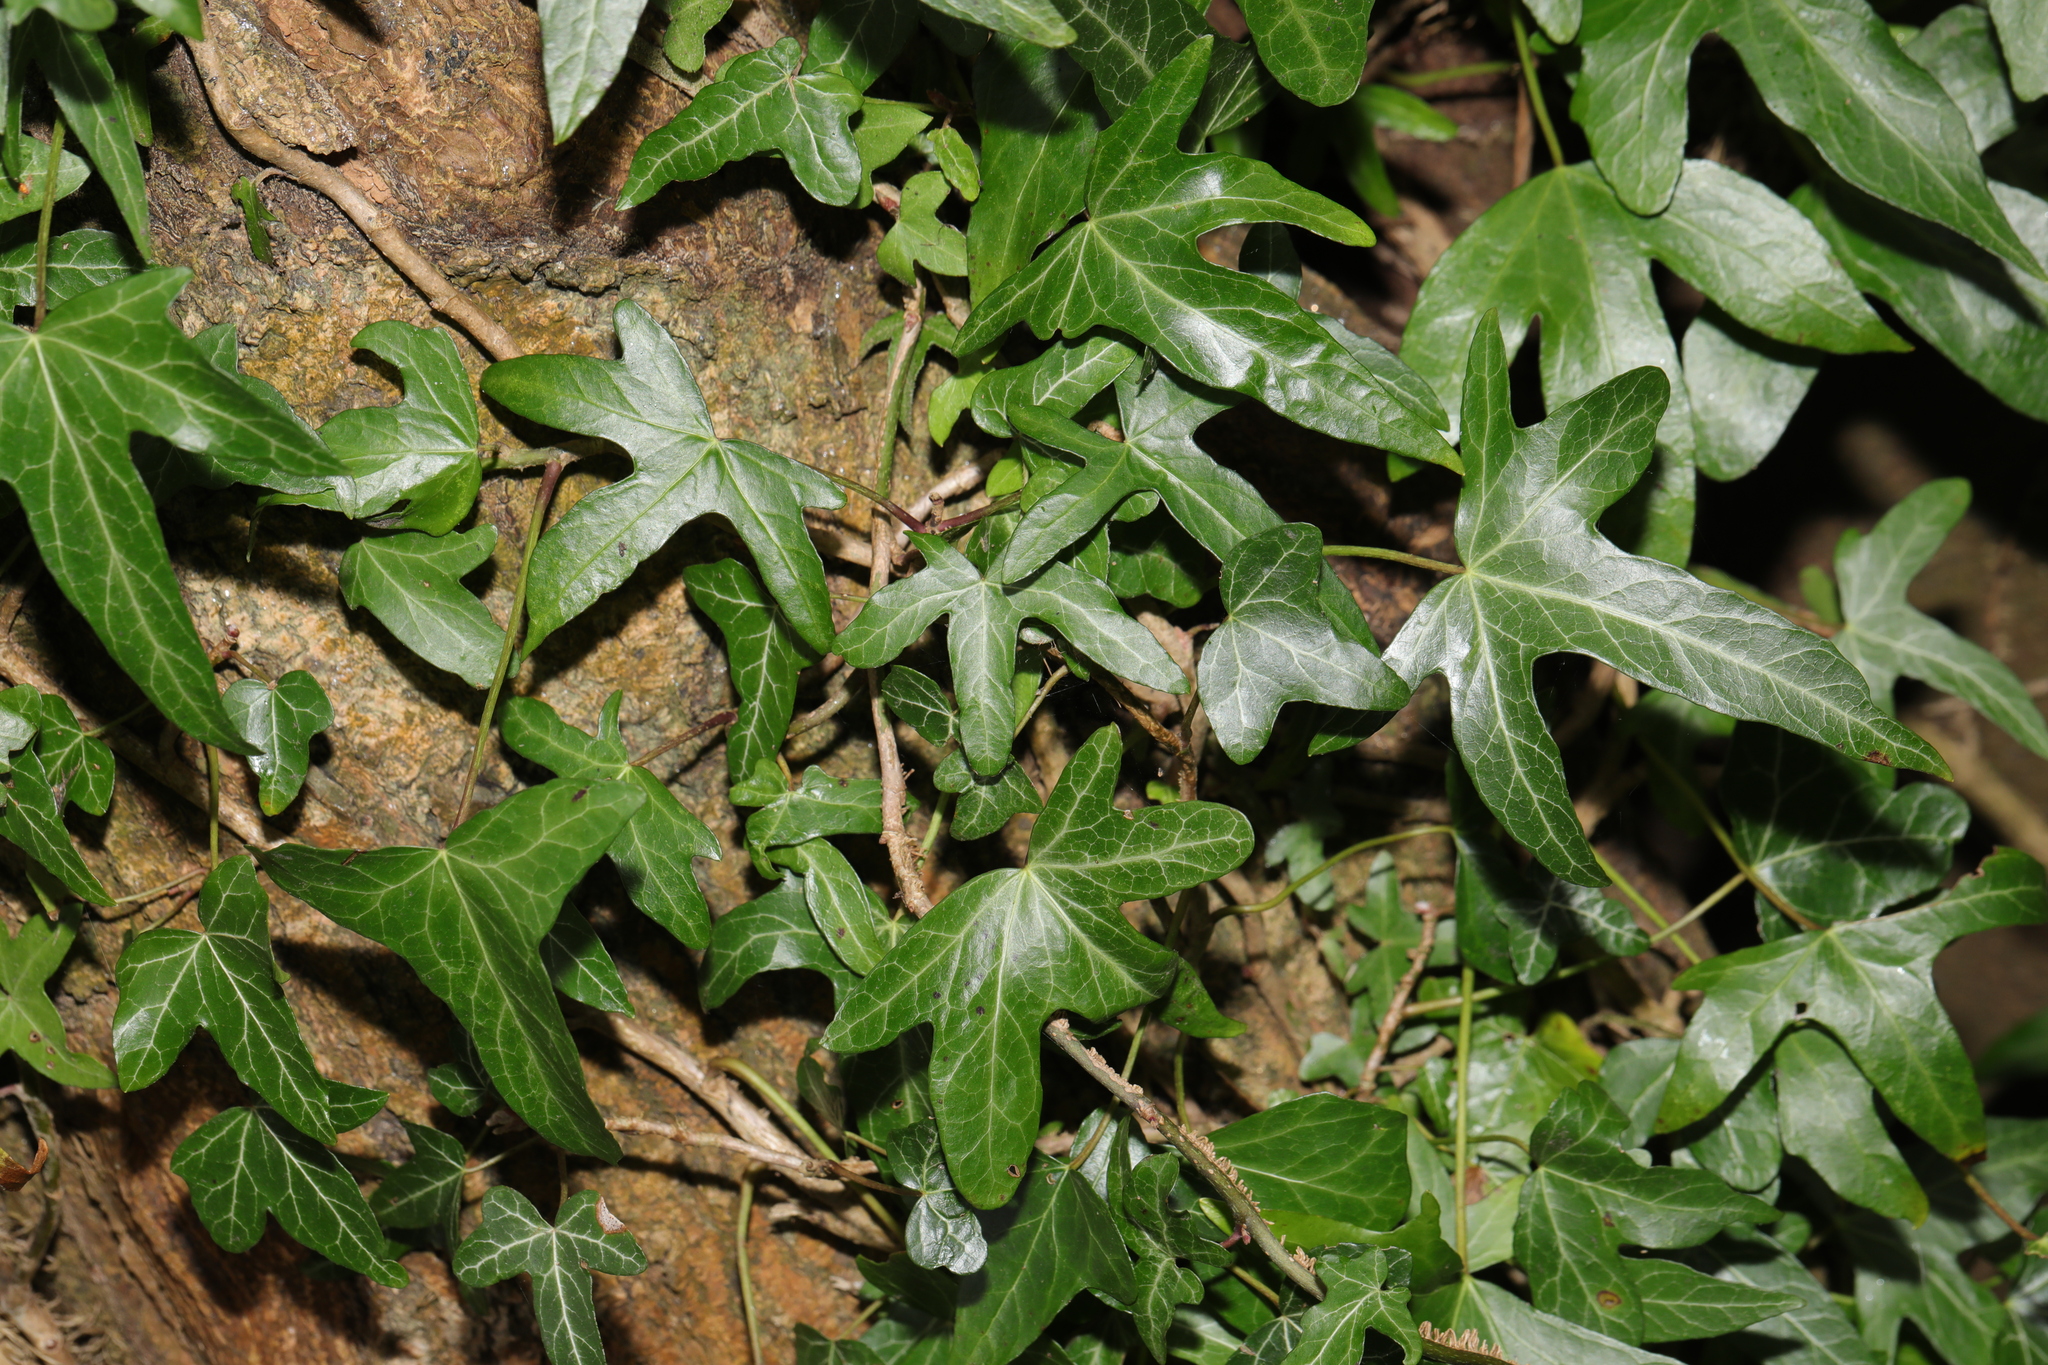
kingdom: Plantae
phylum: Tracheophyta
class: Magnoliopsida
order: Apiales
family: Araliaceae
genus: Hedera
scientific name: Hedera helix
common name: Ivy
